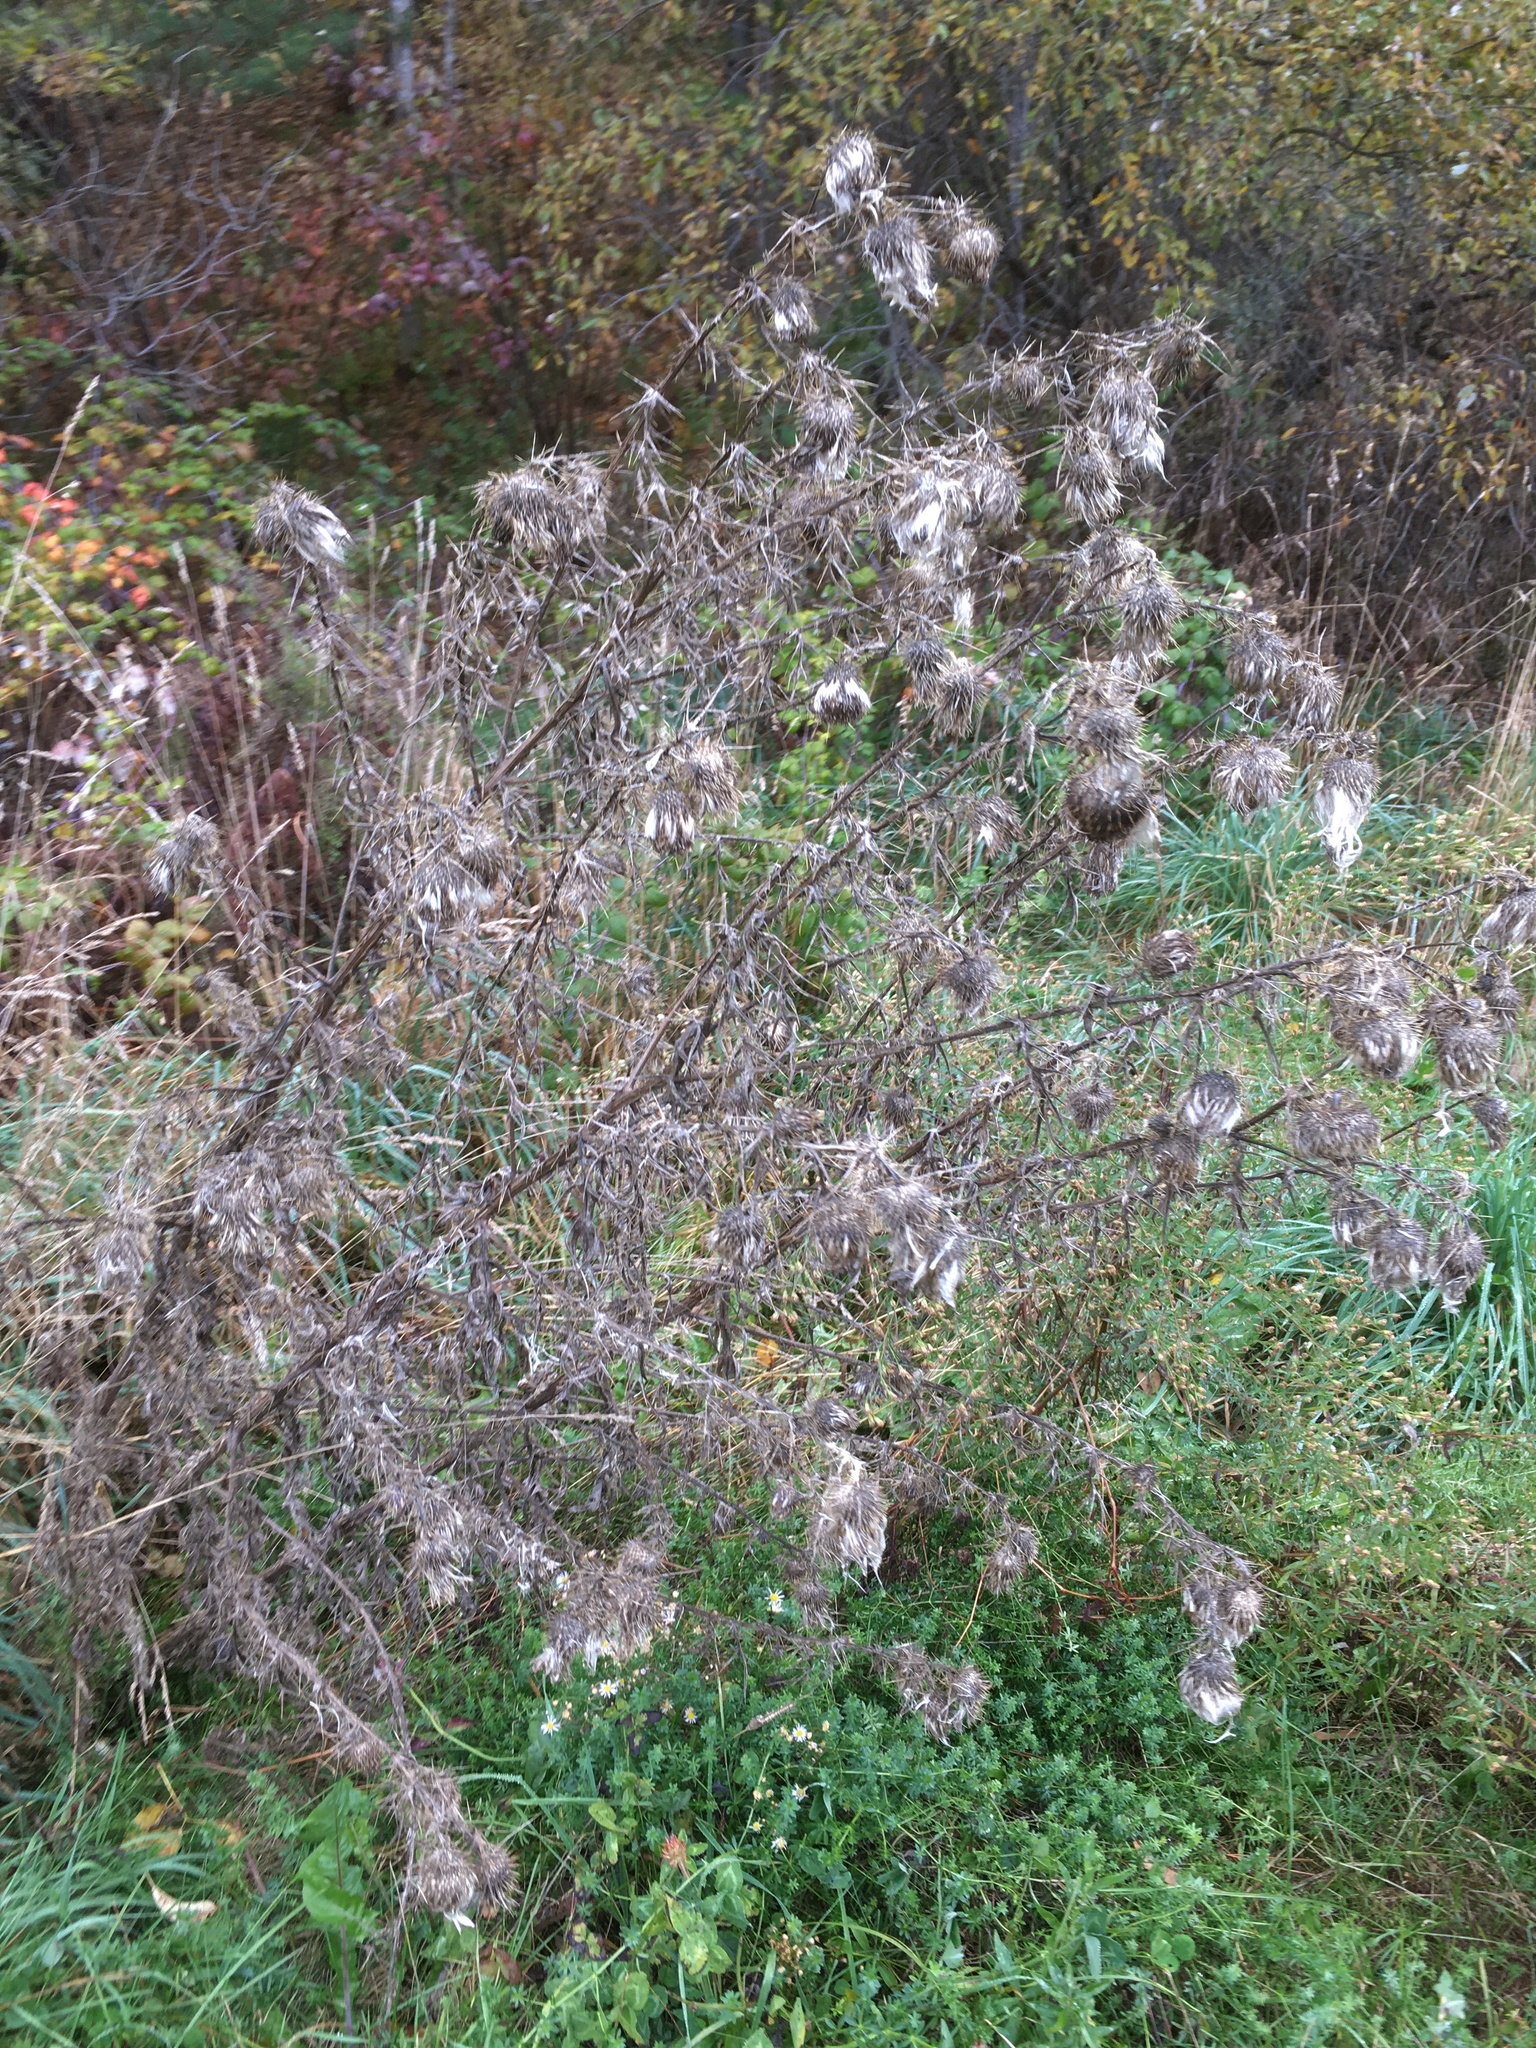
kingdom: Plantae
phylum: Tracheophyta
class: Magnoliopsida
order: Asterales
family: Asteraceae
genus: Cirsium
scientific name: Cirsium vulgare
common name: Bull thistle
